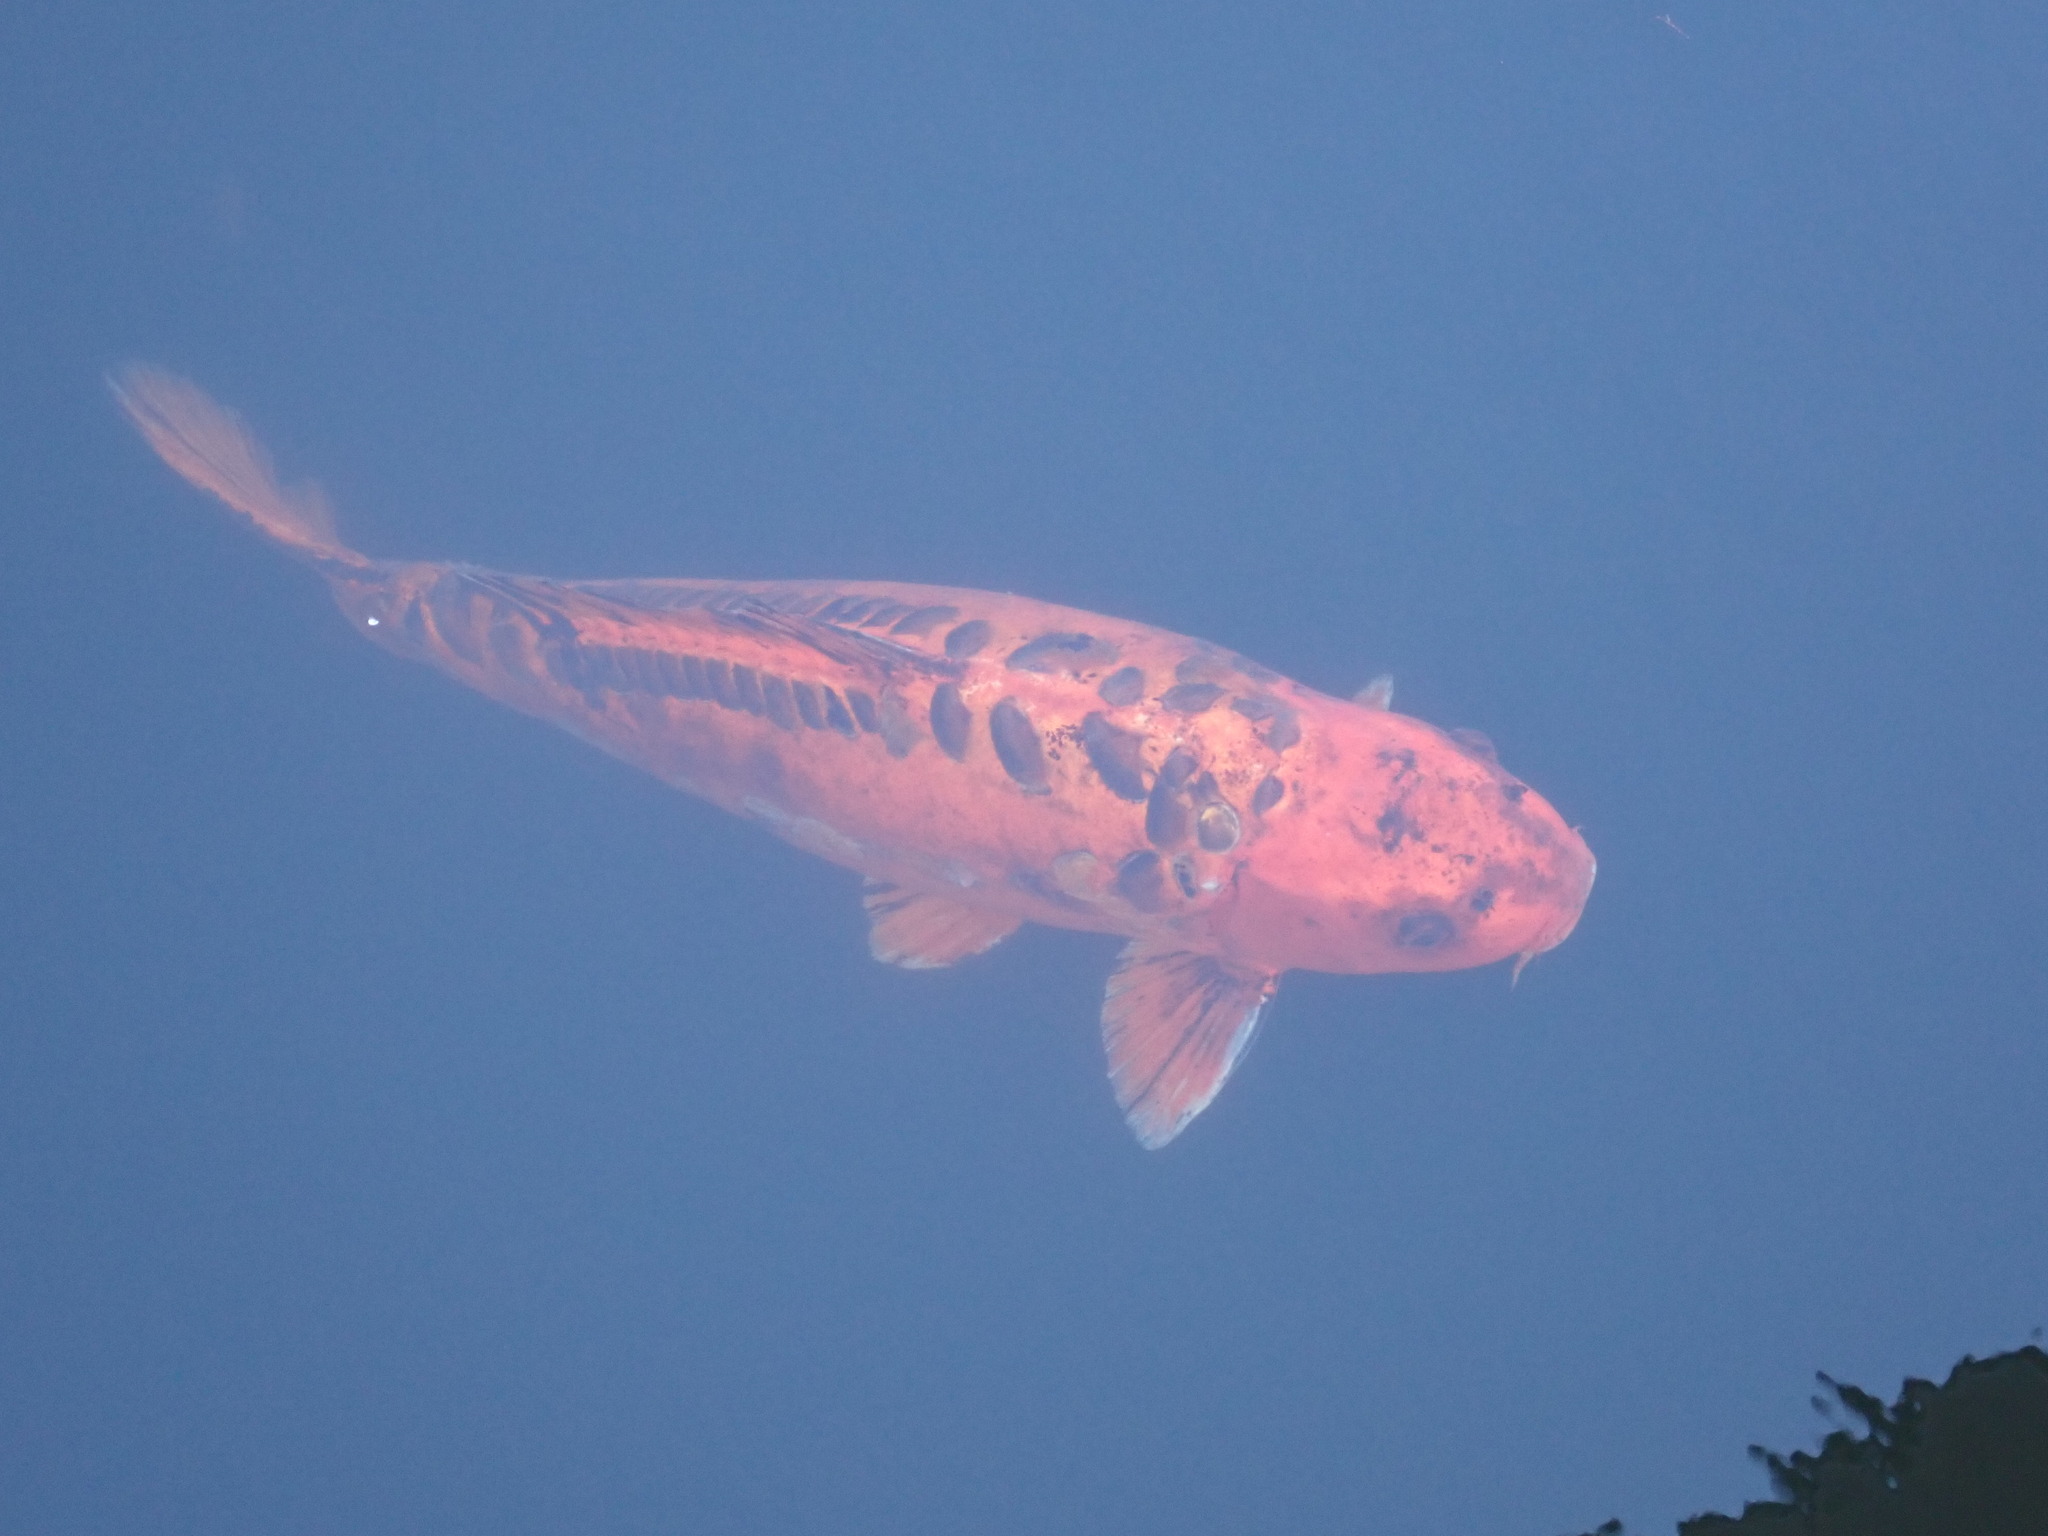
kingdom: Animalia
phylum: Chordata
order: Cypriniformes
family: Cyprinidae
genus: Cyprinus
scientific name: Cyprinus rubrofuscus
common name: Koi
